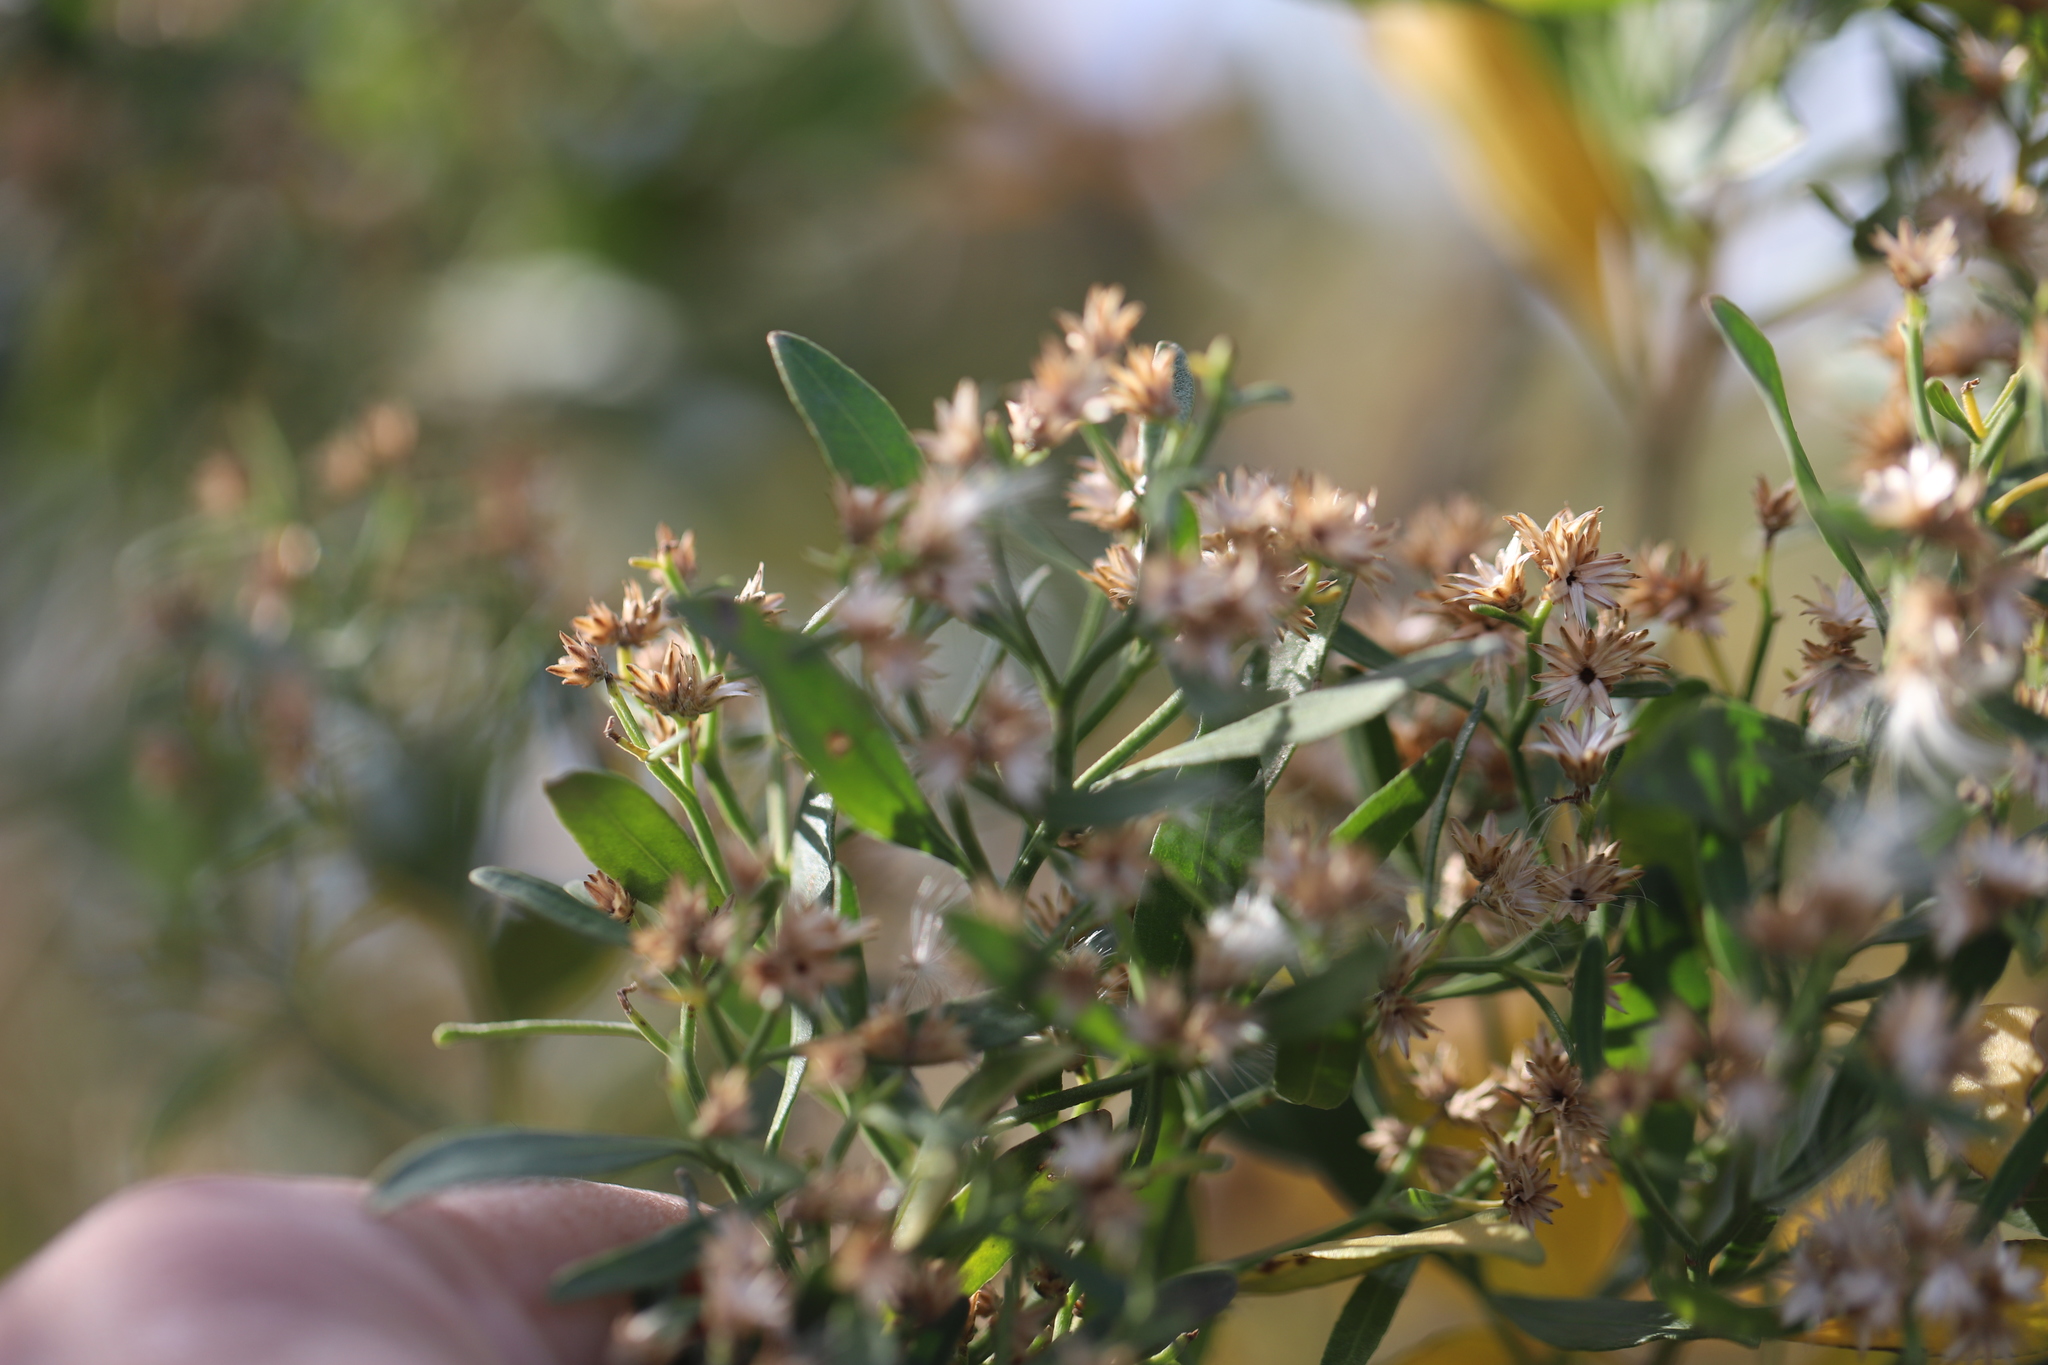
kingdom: Plantae
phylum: Tracheophyta
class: Magnoliopsida
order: Asterales
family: Asteraceae
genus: Baccharis
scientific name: Baccharis halimifolia
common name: Eastern baccharis
